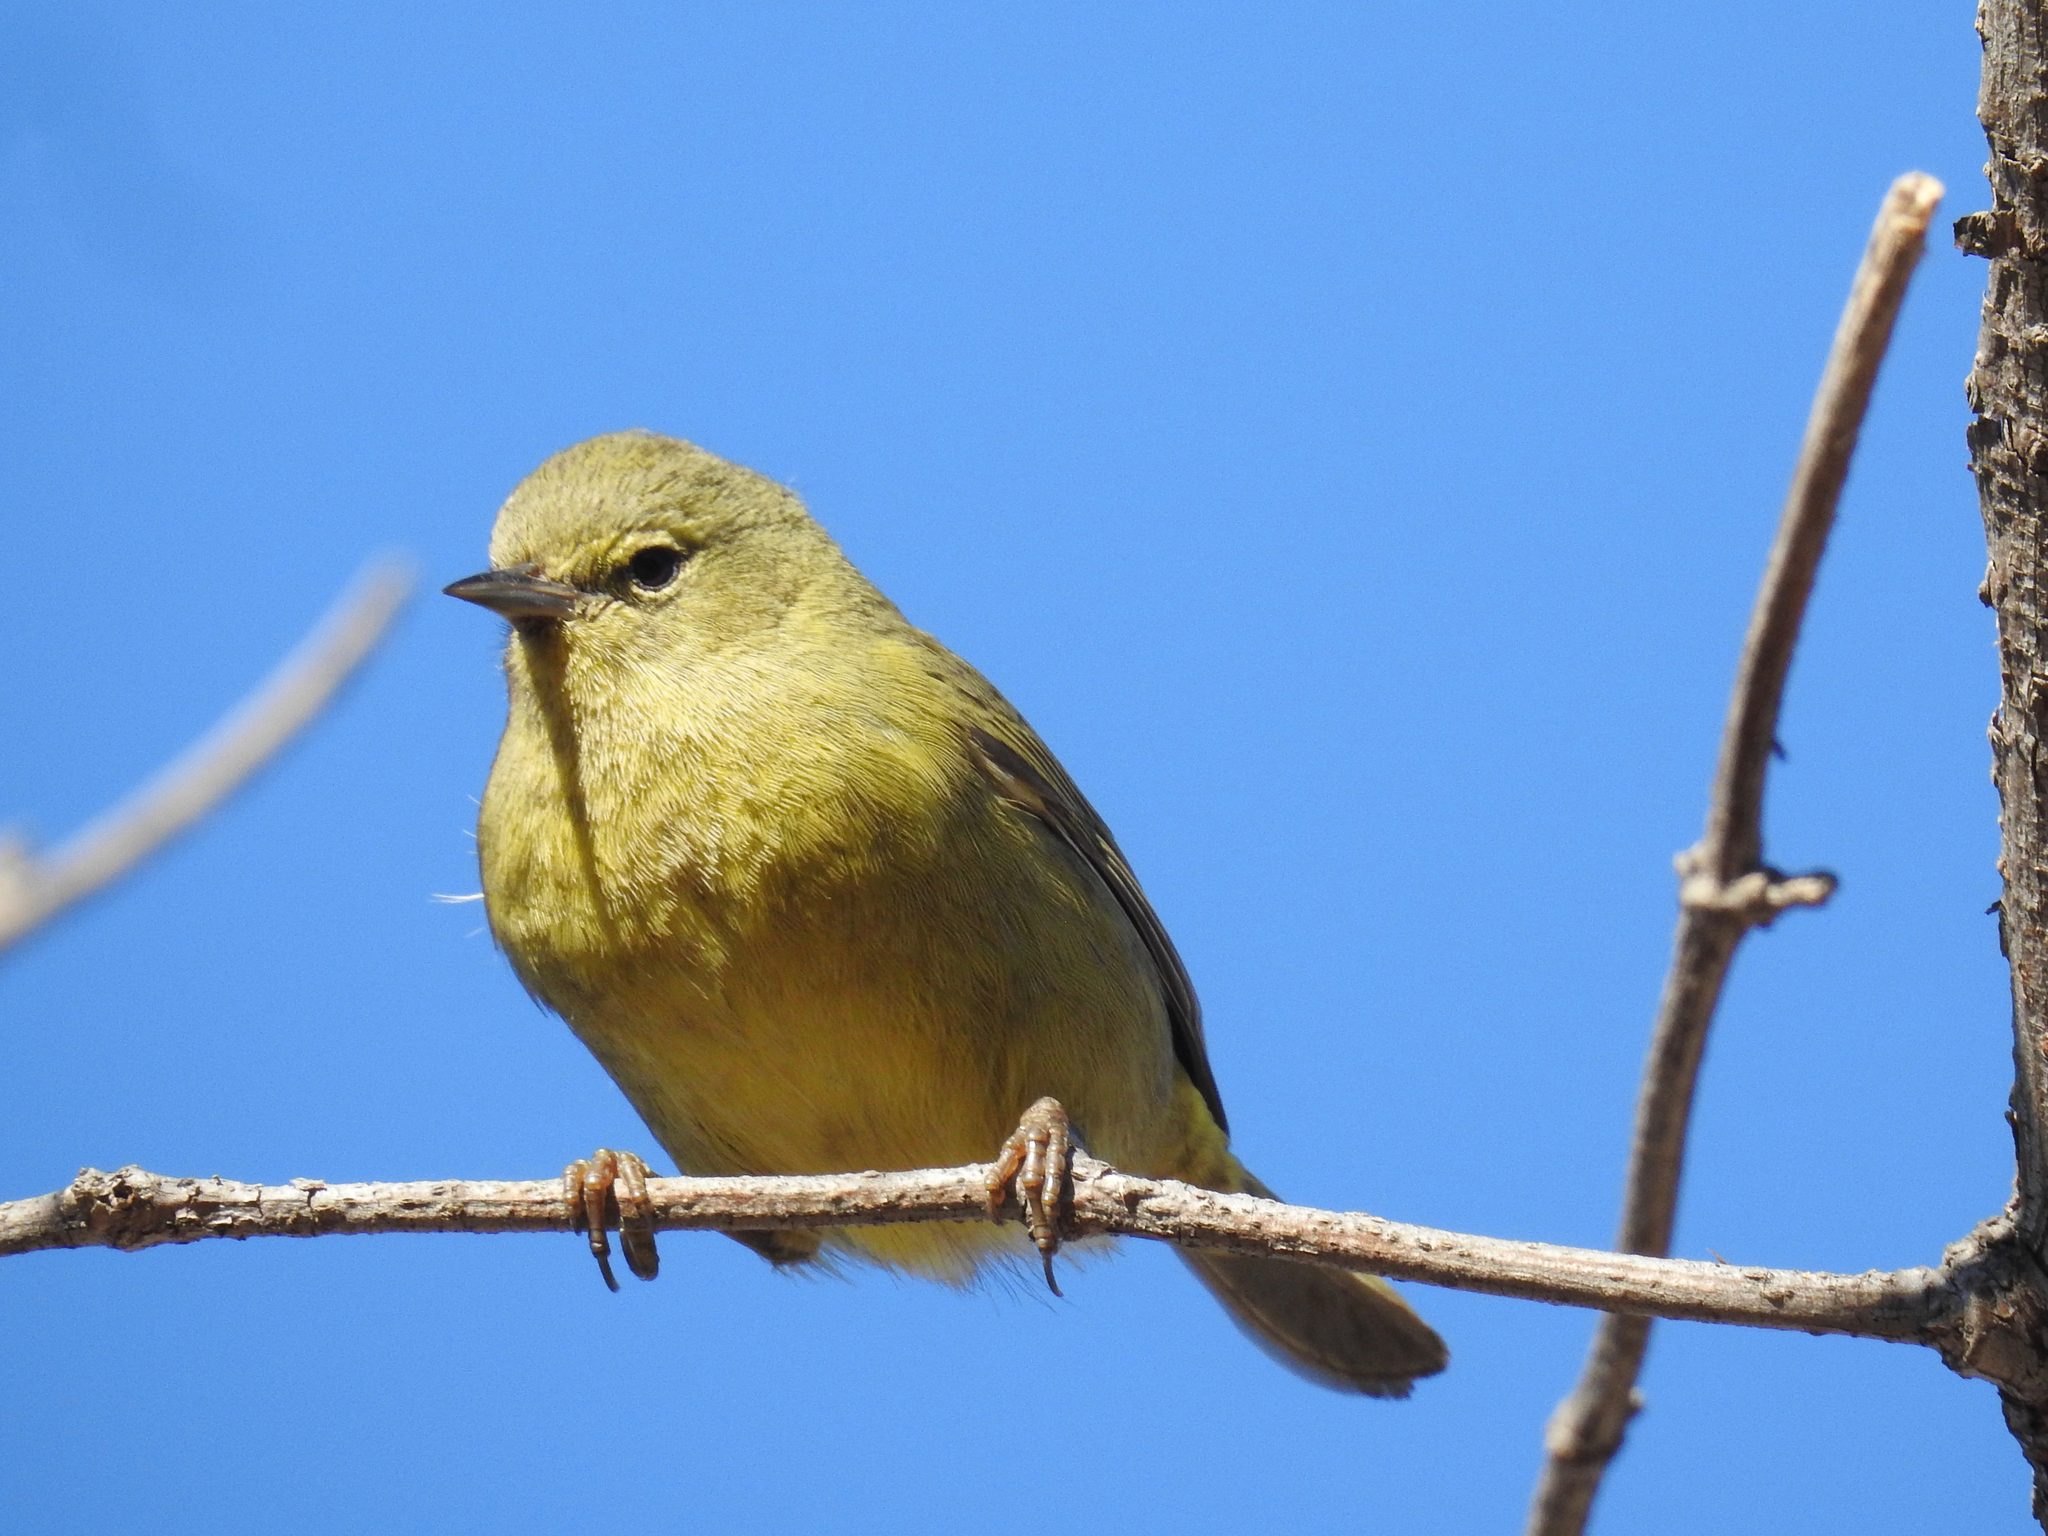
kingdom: Animalia
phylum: Chordata
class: Aves
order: Passeriformes
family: Parulidae
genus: Leiothlypis
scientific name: Leiothlypis celata
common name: Orange-crowned warbler
